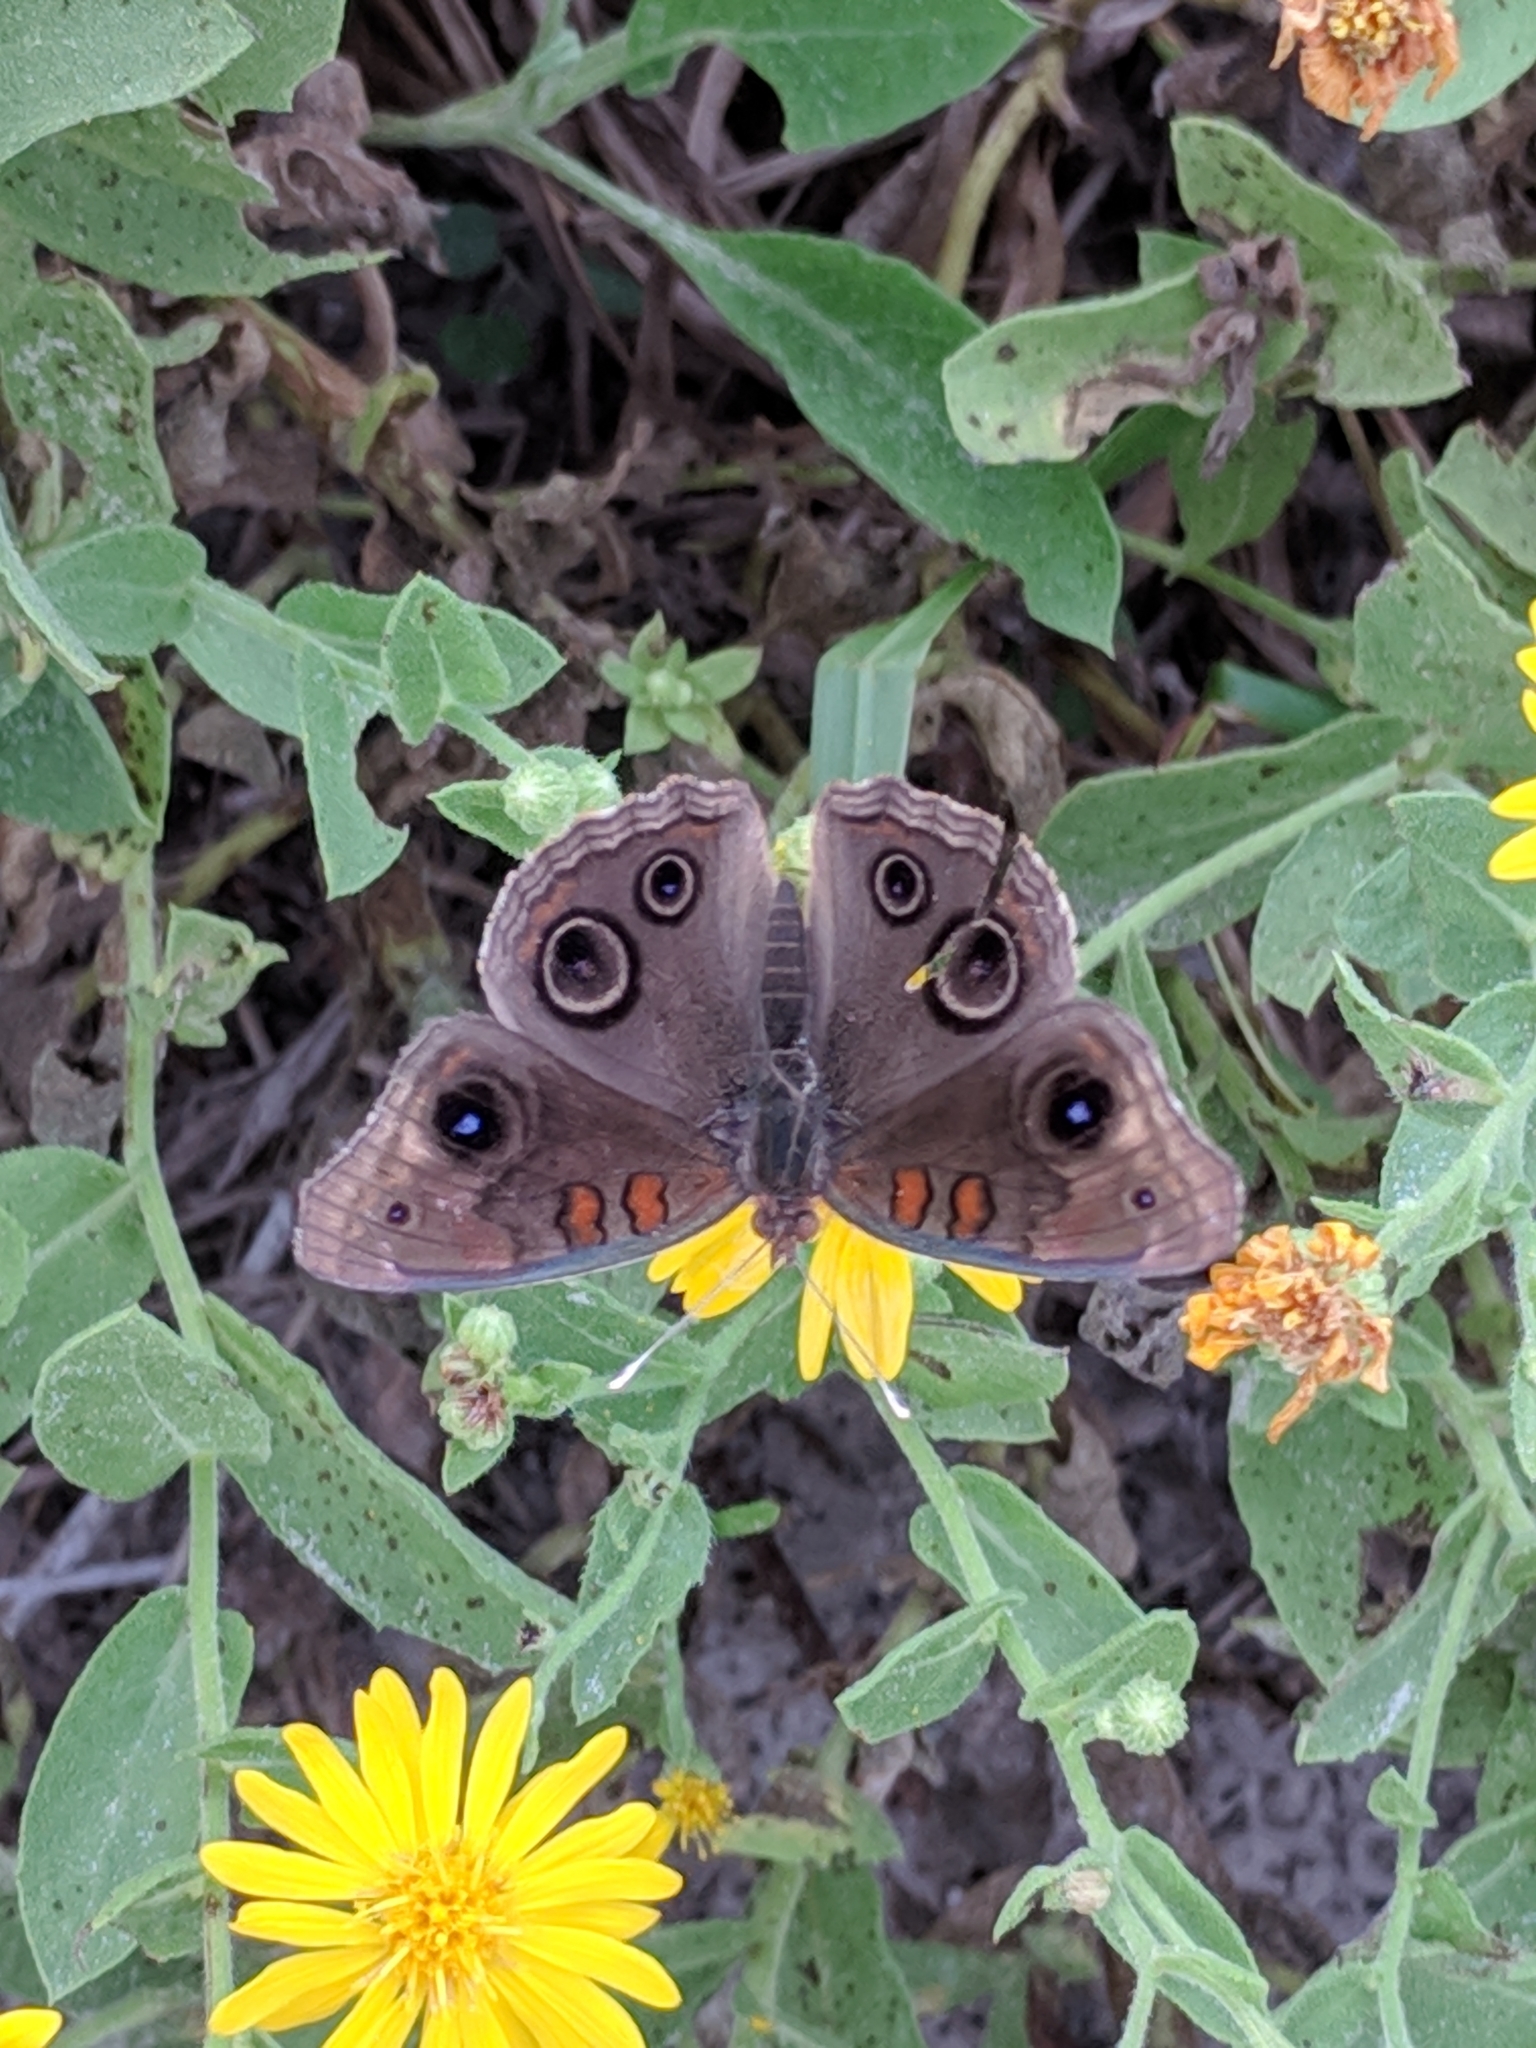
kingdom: Animalia
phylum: Arthropoda
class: Insecta
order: Lepidoptera
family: Nymphalidae
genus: Junonia
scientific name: Junonia stemosa
